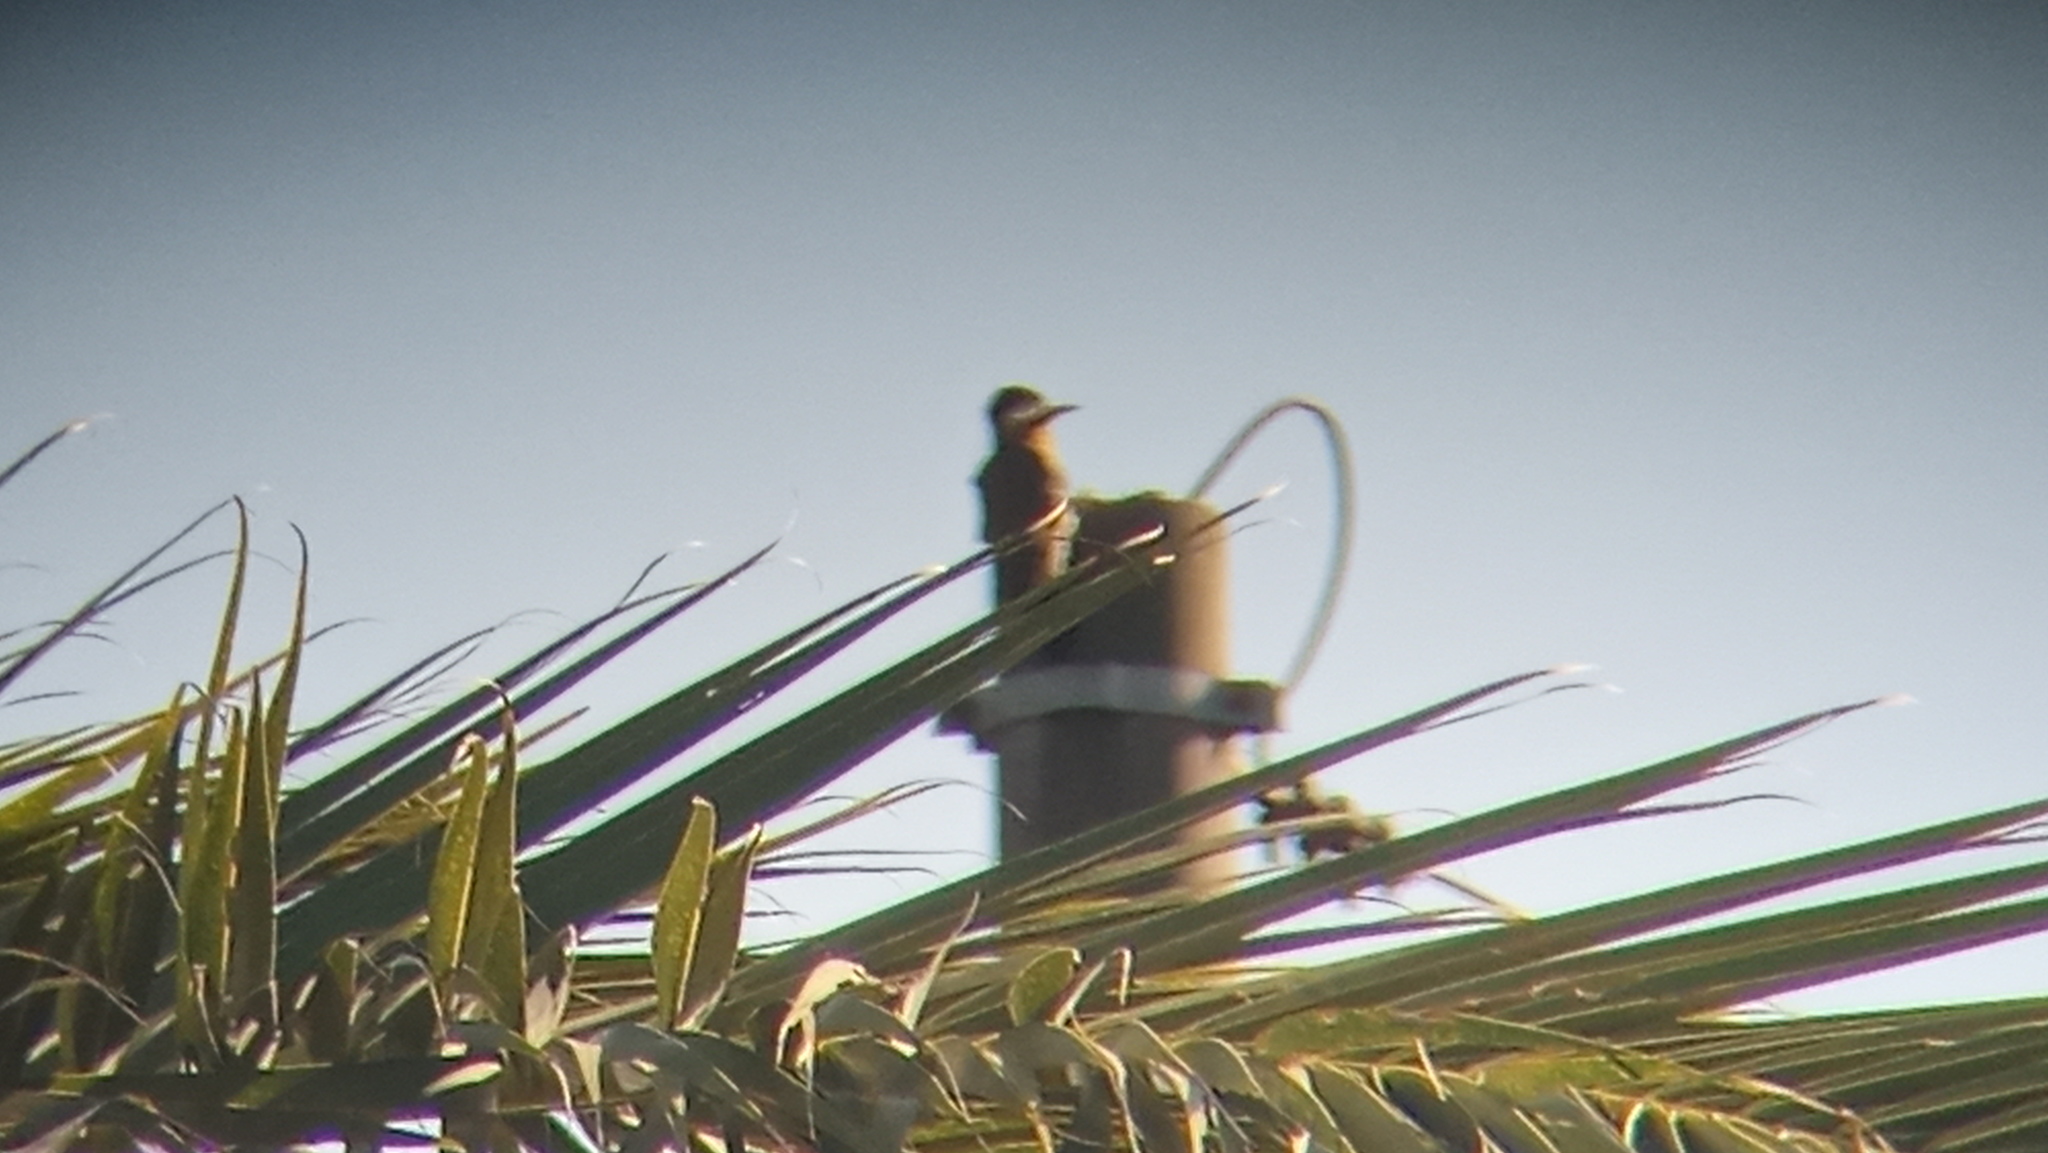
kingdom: Animalia
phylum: Chordata
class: Aves
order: Piciformes
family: Picidae
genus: Colaptes
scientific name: Colaptes melanochloros
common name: Green-barred woodpecker
